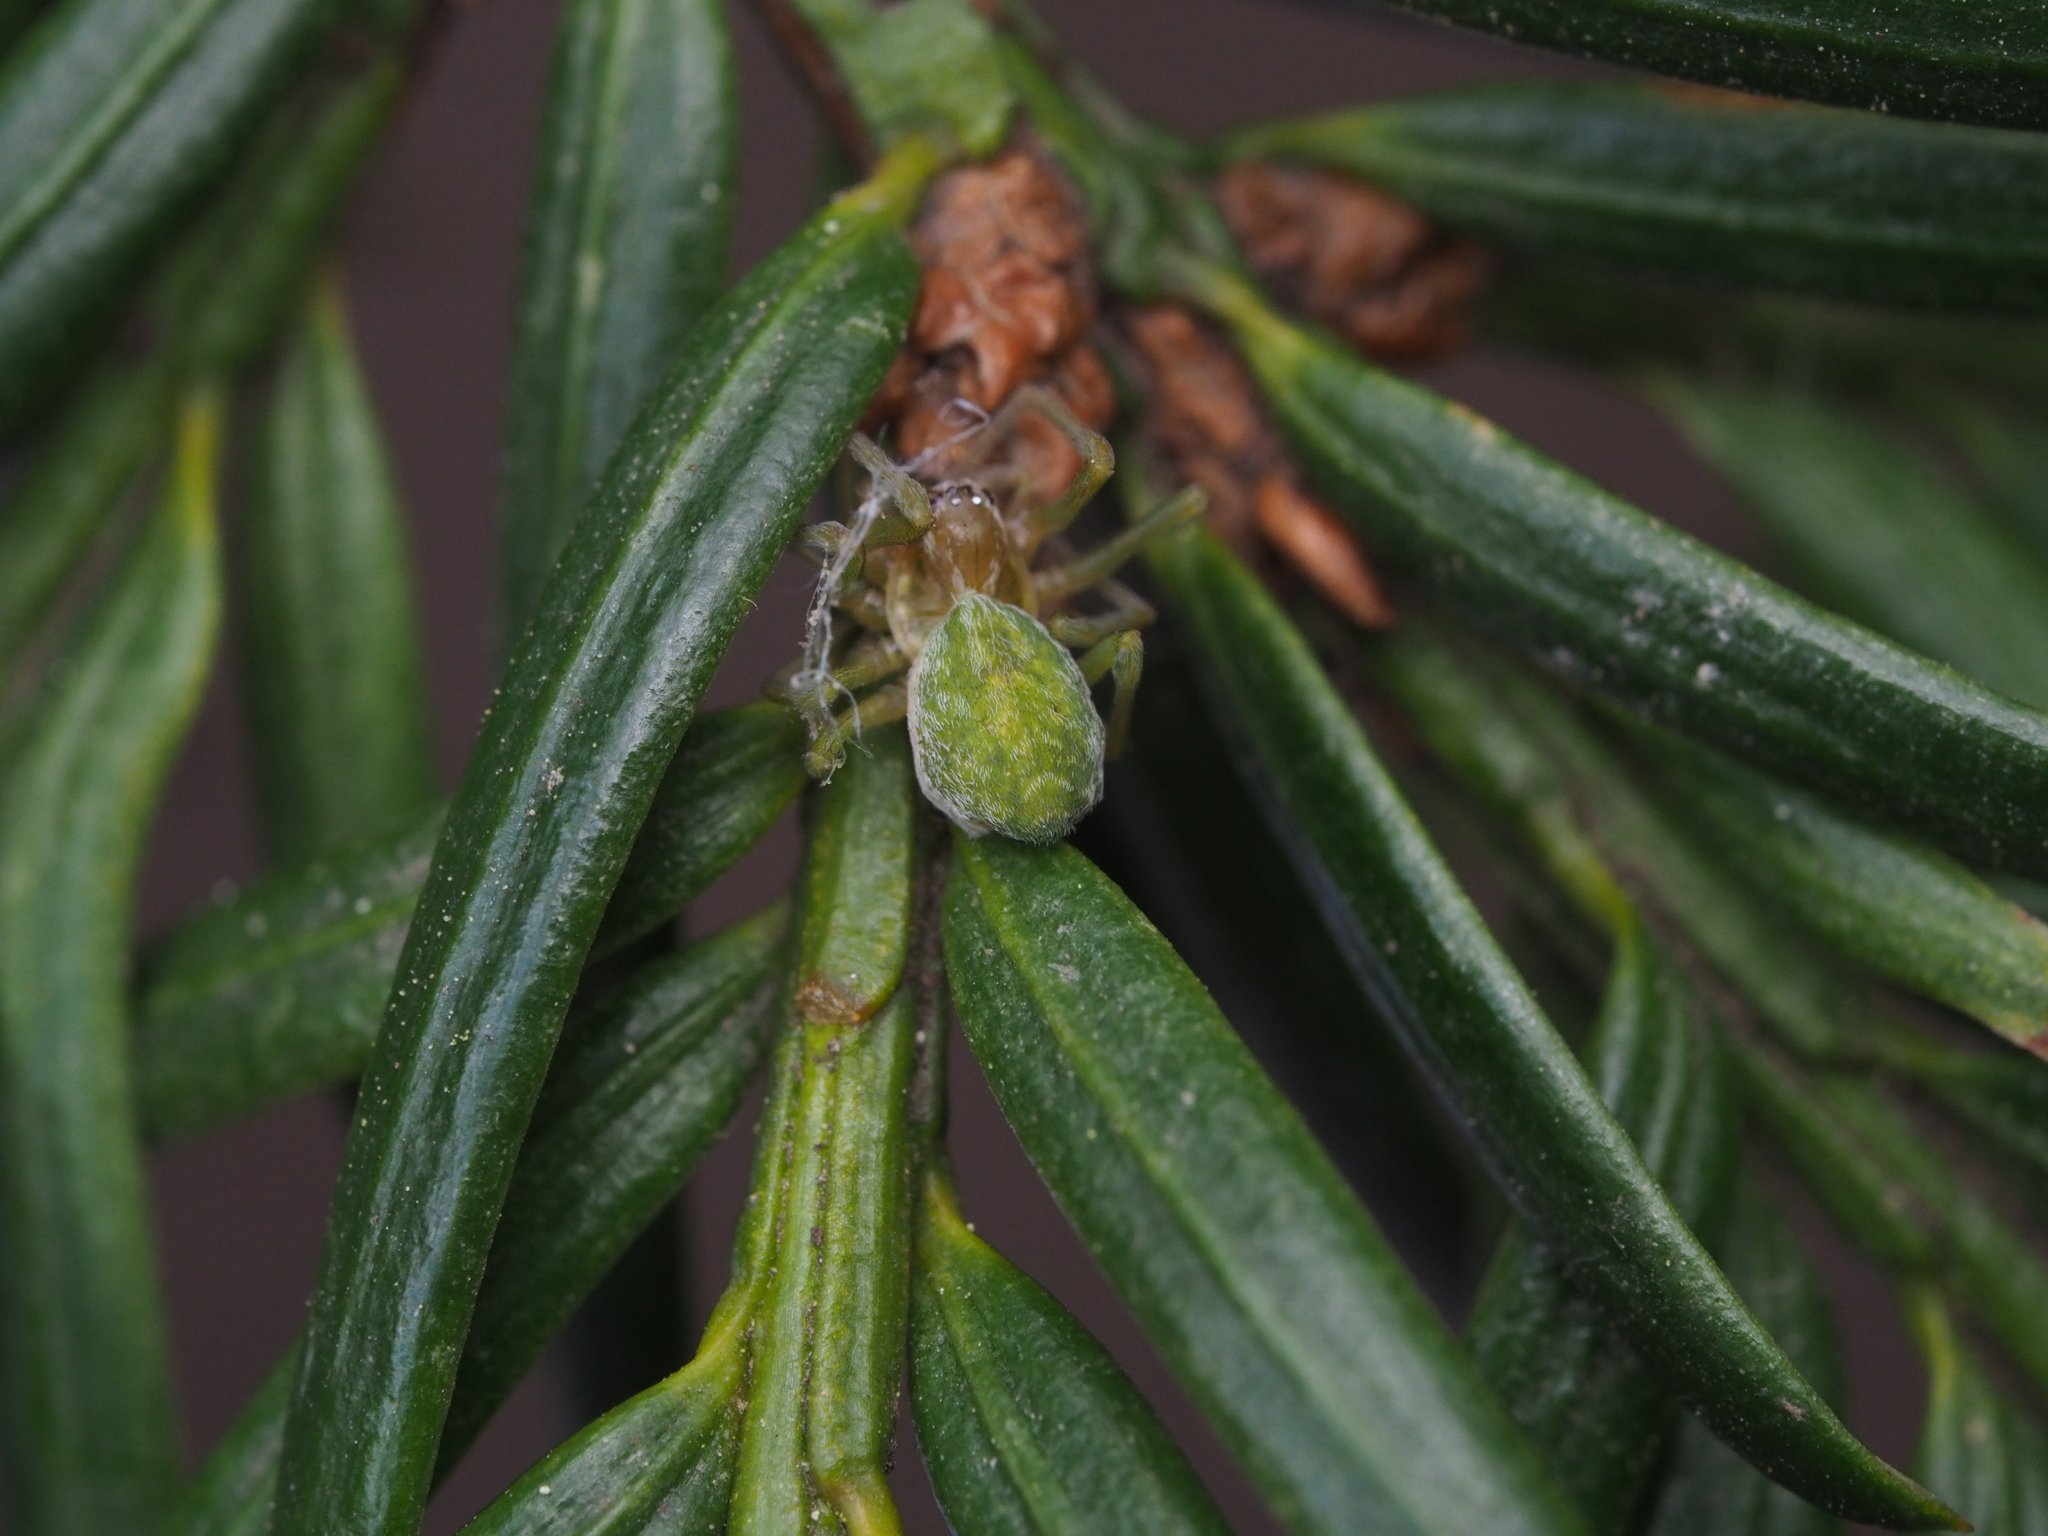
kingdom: Animalia
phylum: Arthropoda
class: Arachnida
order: Araneae
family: Dictynidae
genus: Nigma
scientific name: Nigma walckenaeri
